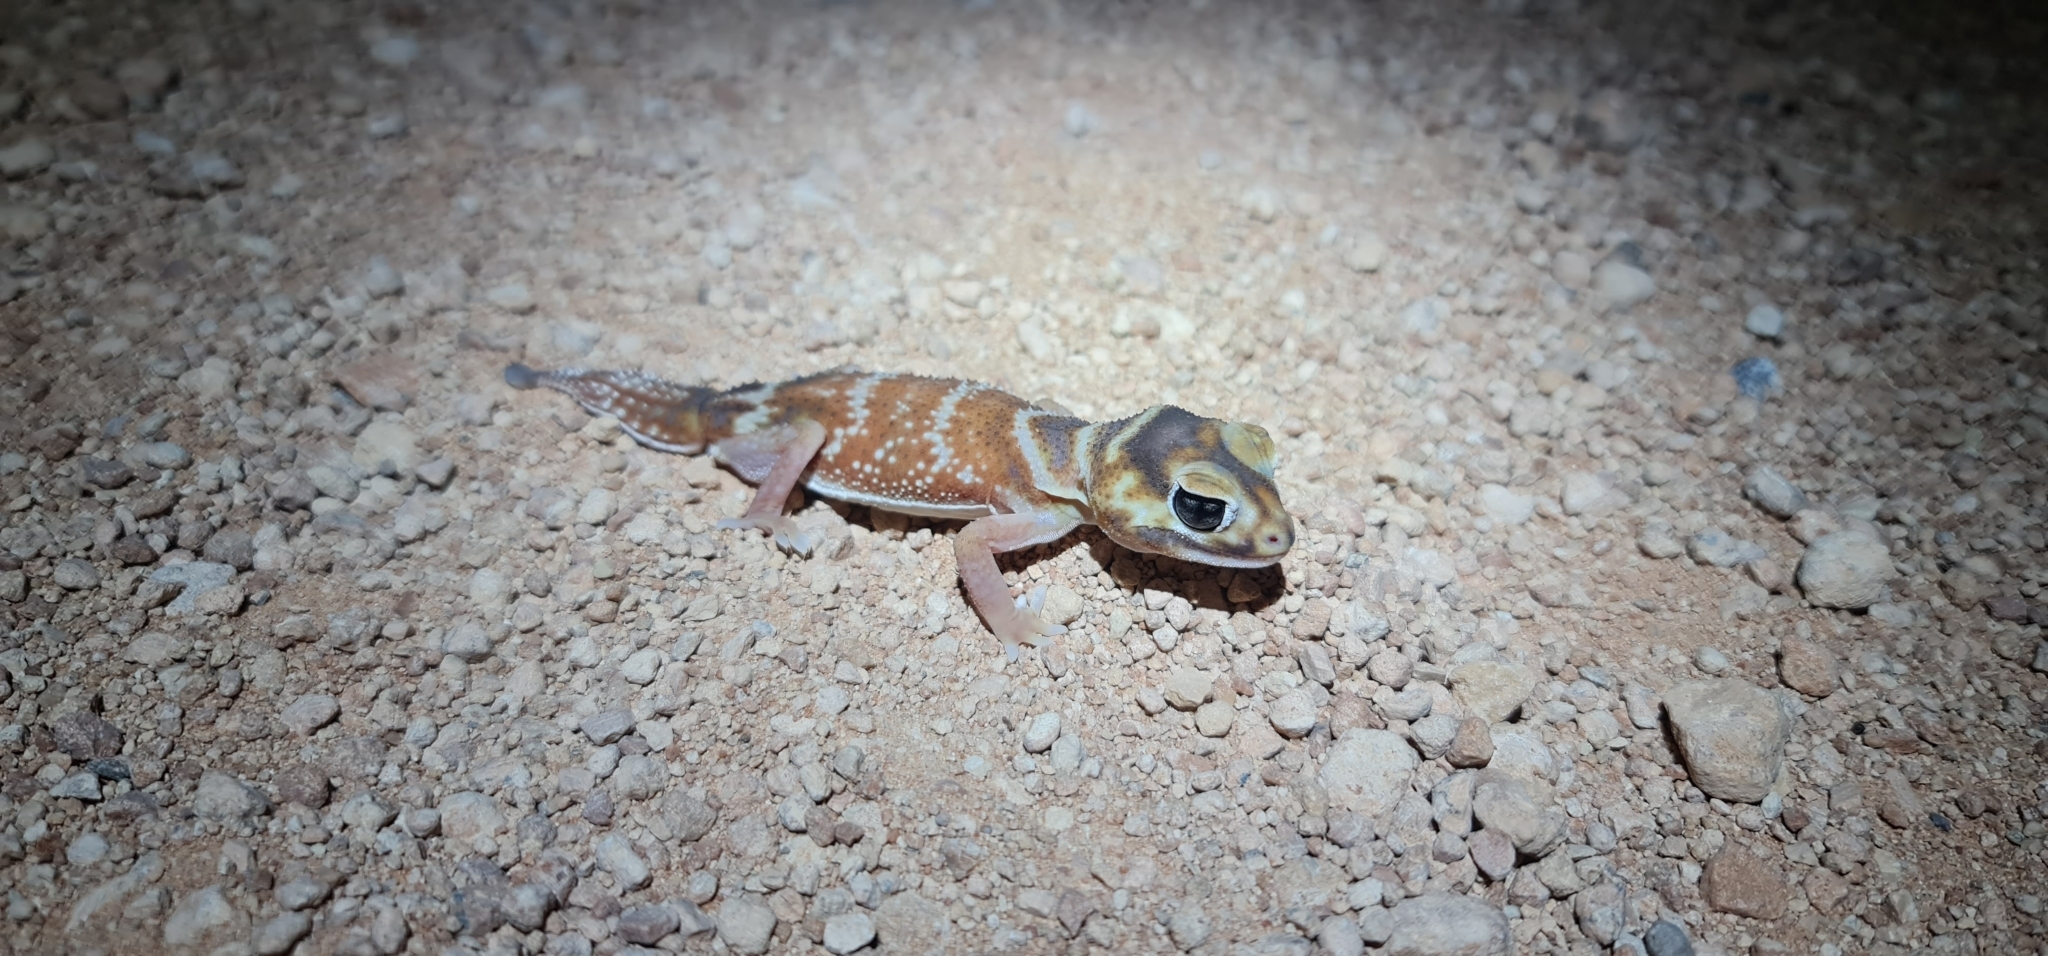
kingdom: Animalia
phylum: Chordata
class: Squamata
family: Carphodactylidae
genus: Nephrurus
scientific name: Nephrurus levis
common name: Smooth knob-tailed gecko
